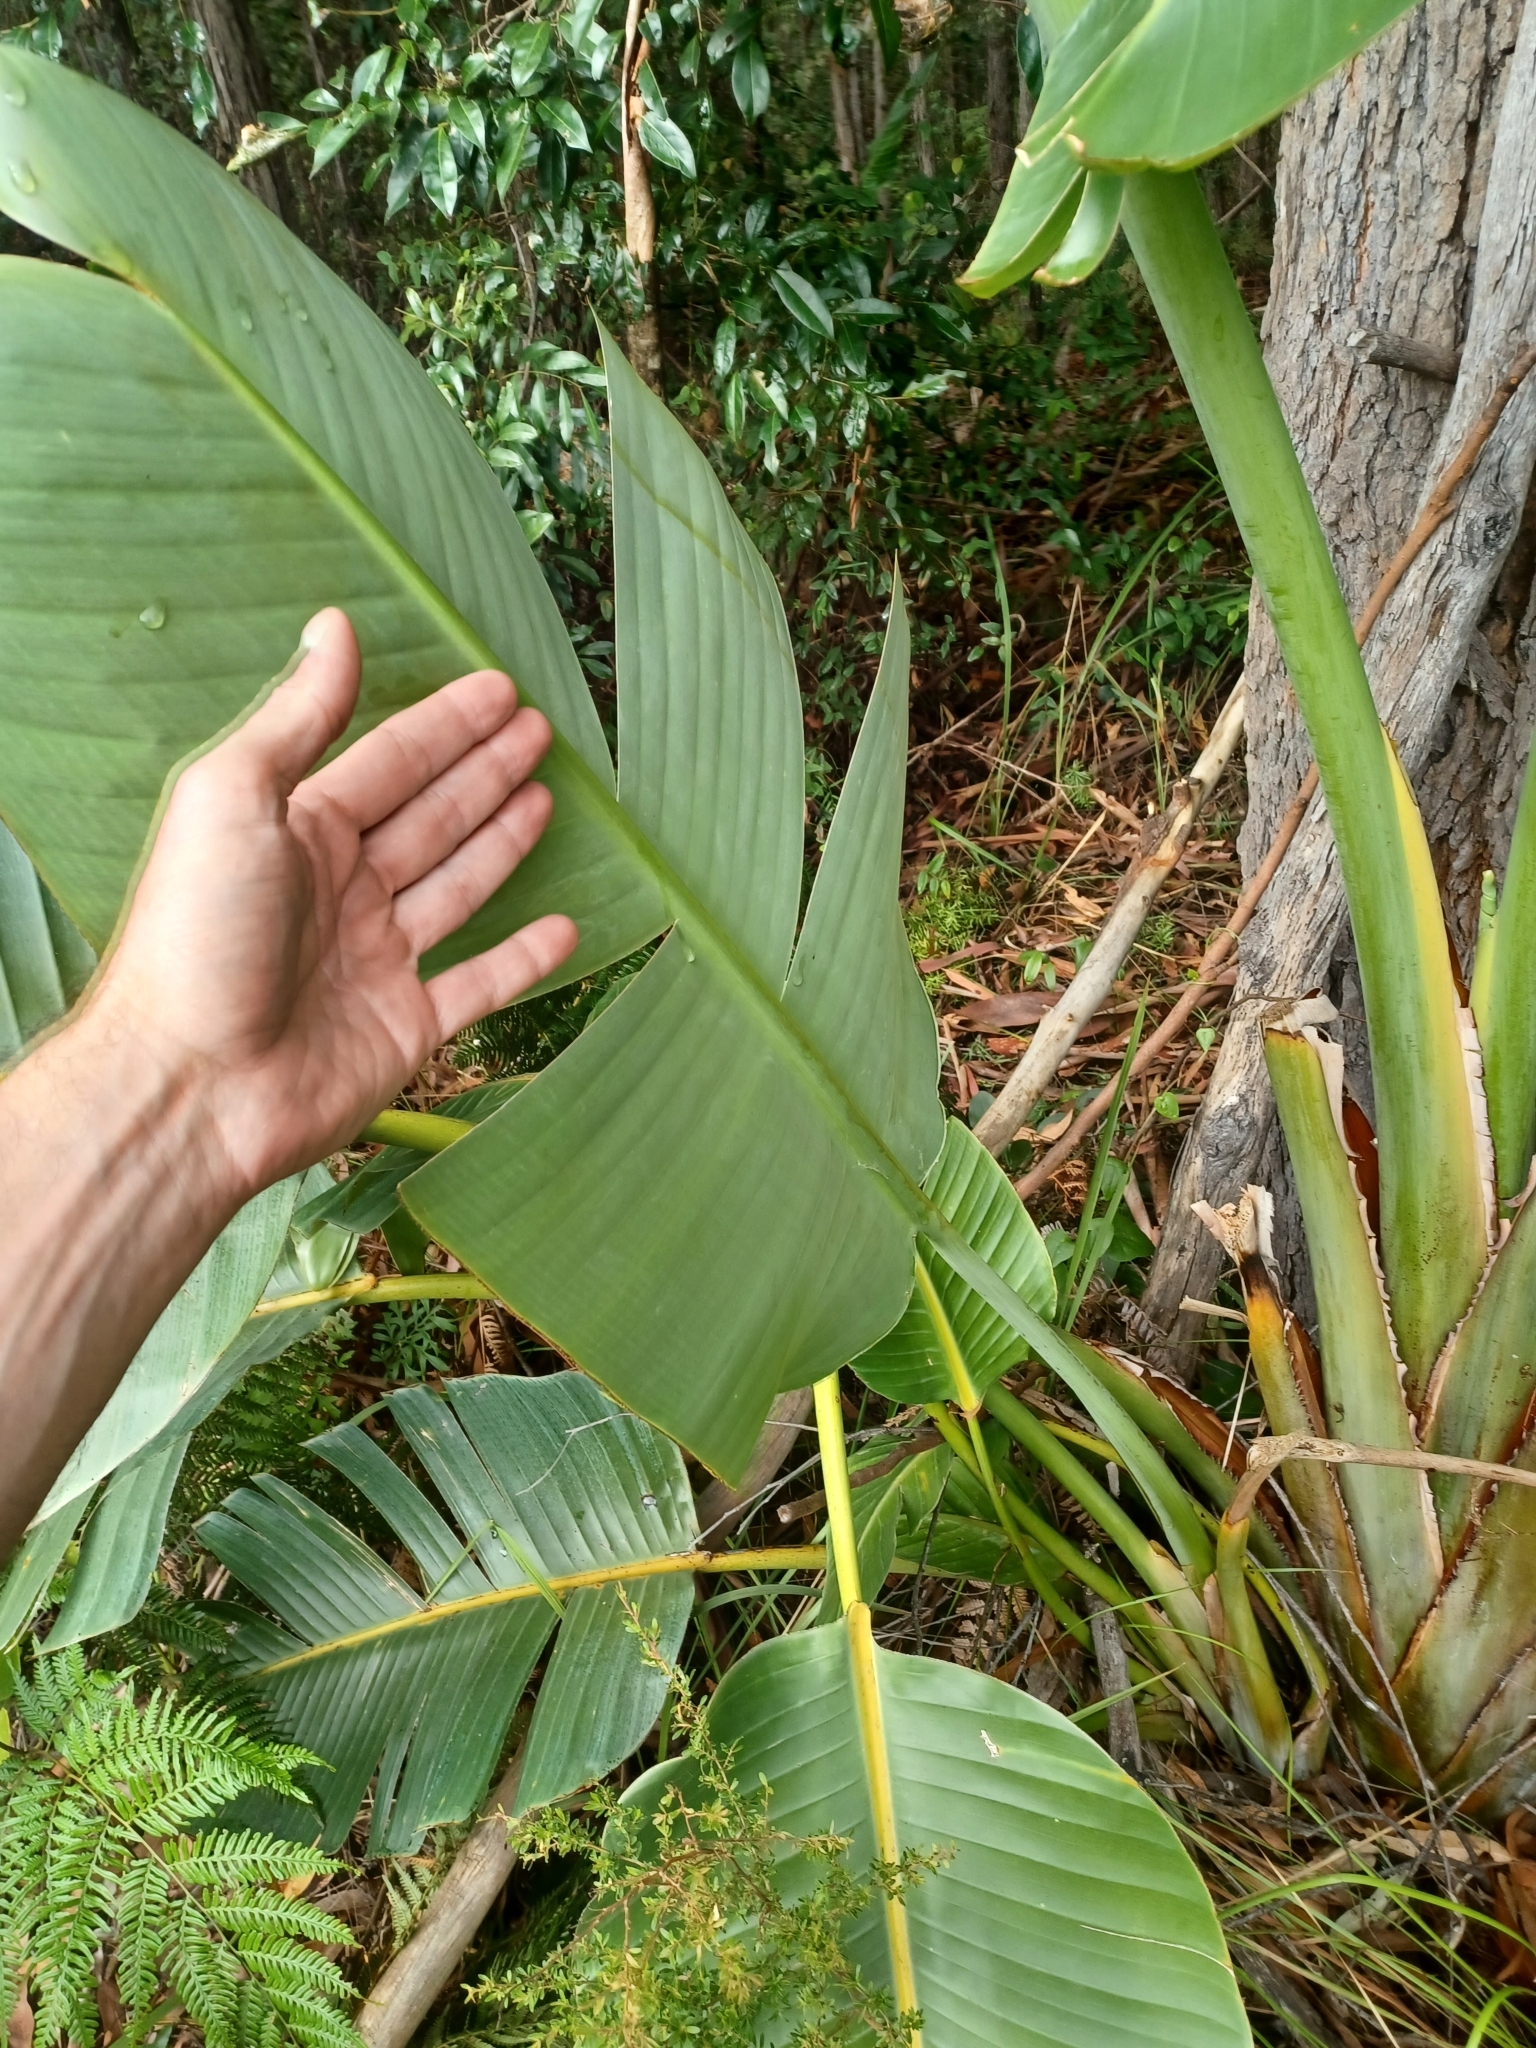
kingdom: Plantae
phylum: Tracheophyta
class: Liliopsida
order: Zingiberales
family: Strelitziaceae
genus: Strelitzia
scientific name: Strelitzia nicolai
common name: Bird-of-paradise tree
